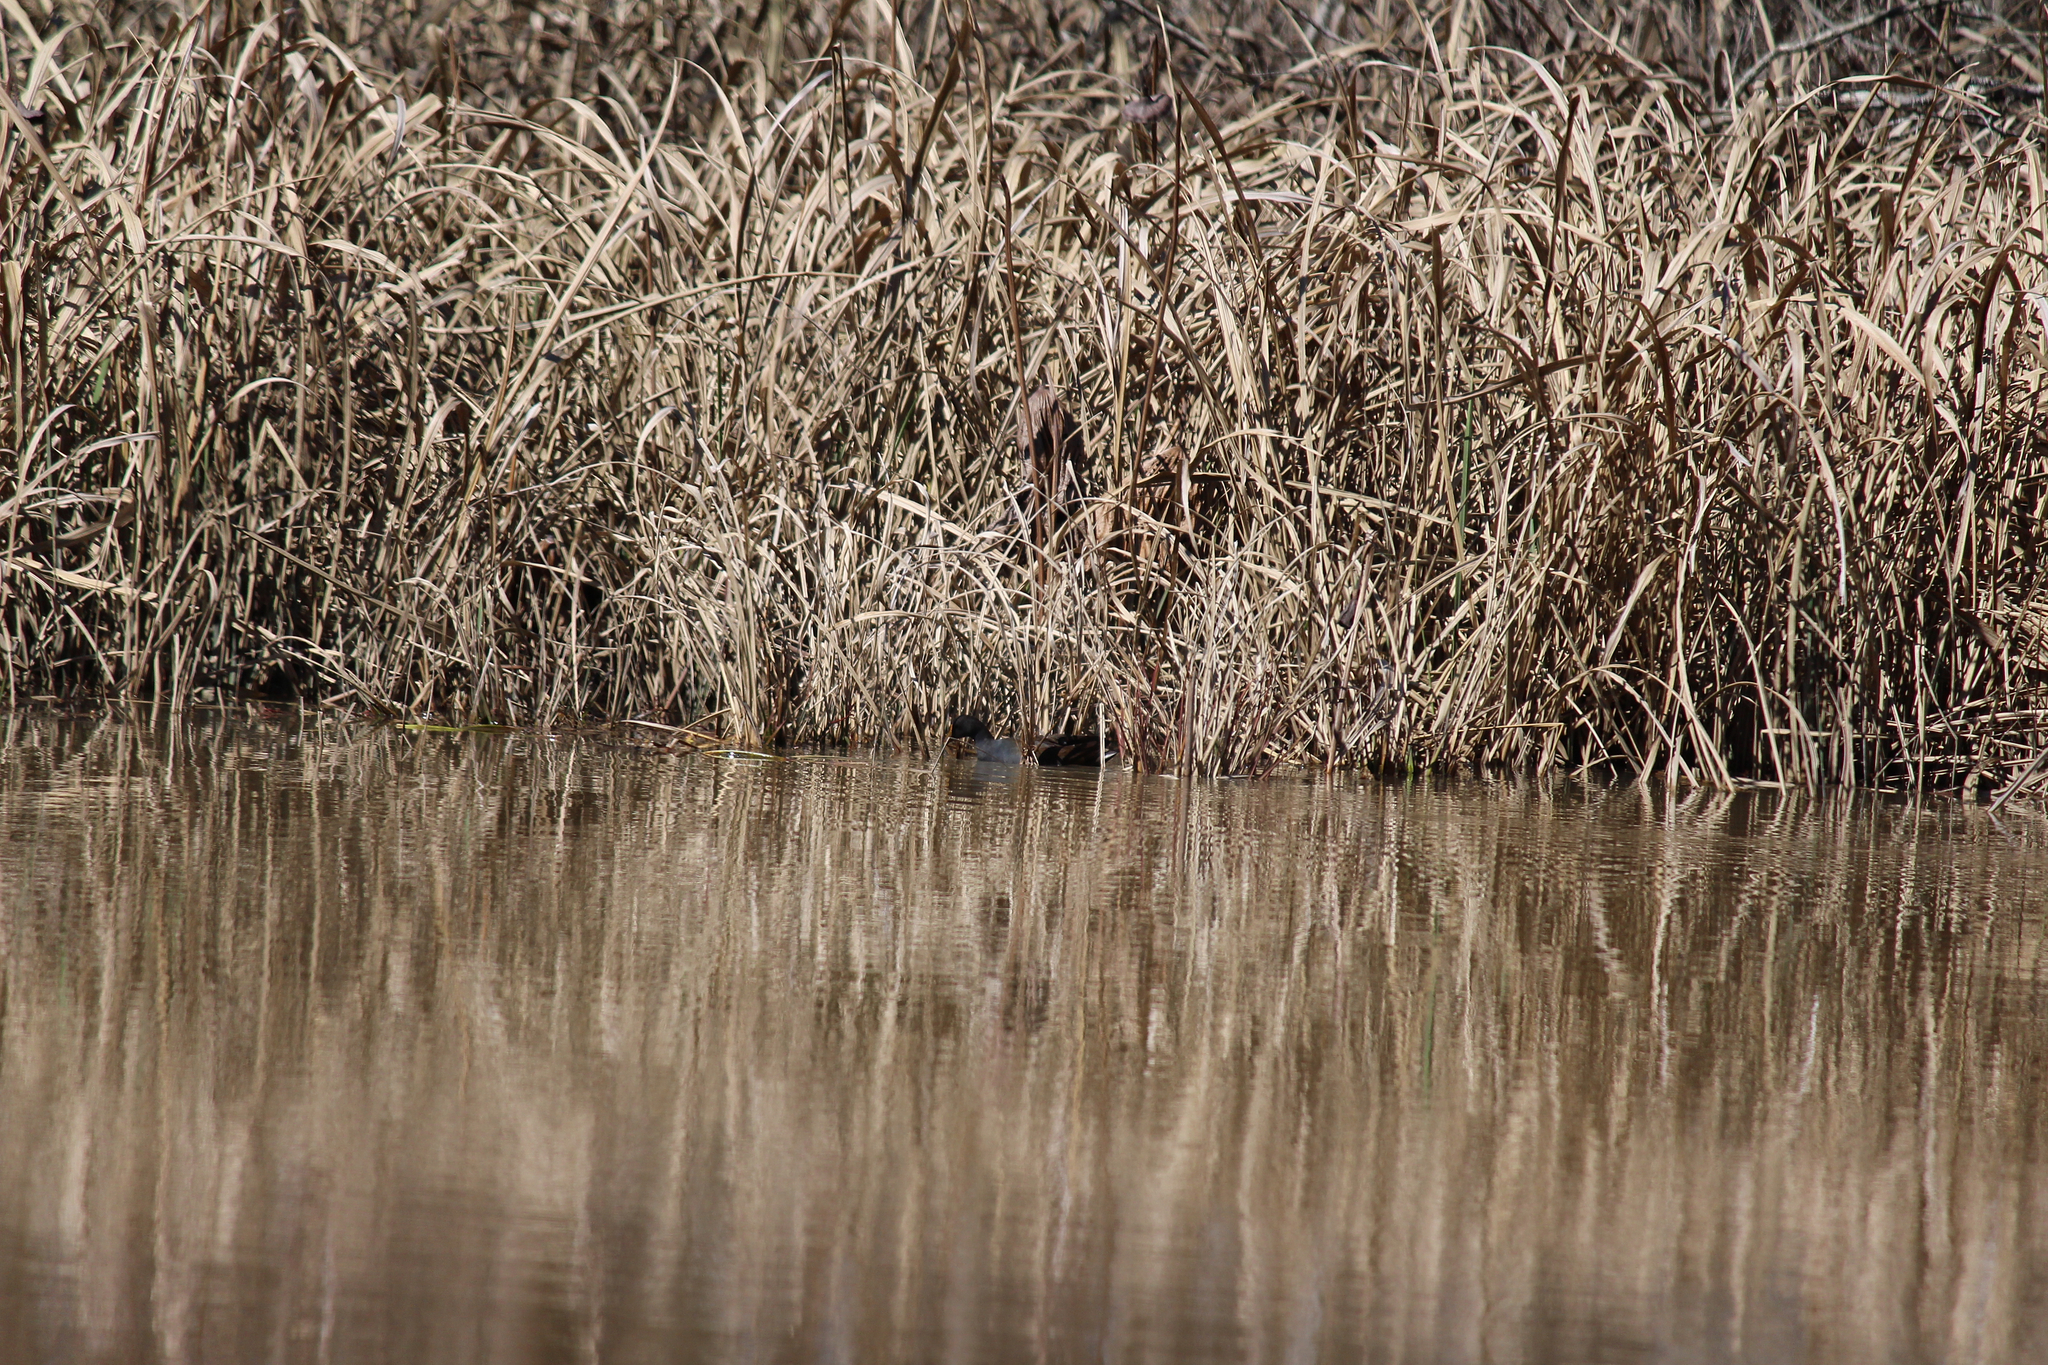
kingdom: Animalia
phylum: Chordata
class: Aves
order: Gruiformes
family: Rallidae
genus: Gallinula
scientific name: Gallinula chloropus
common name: Common moorhen
